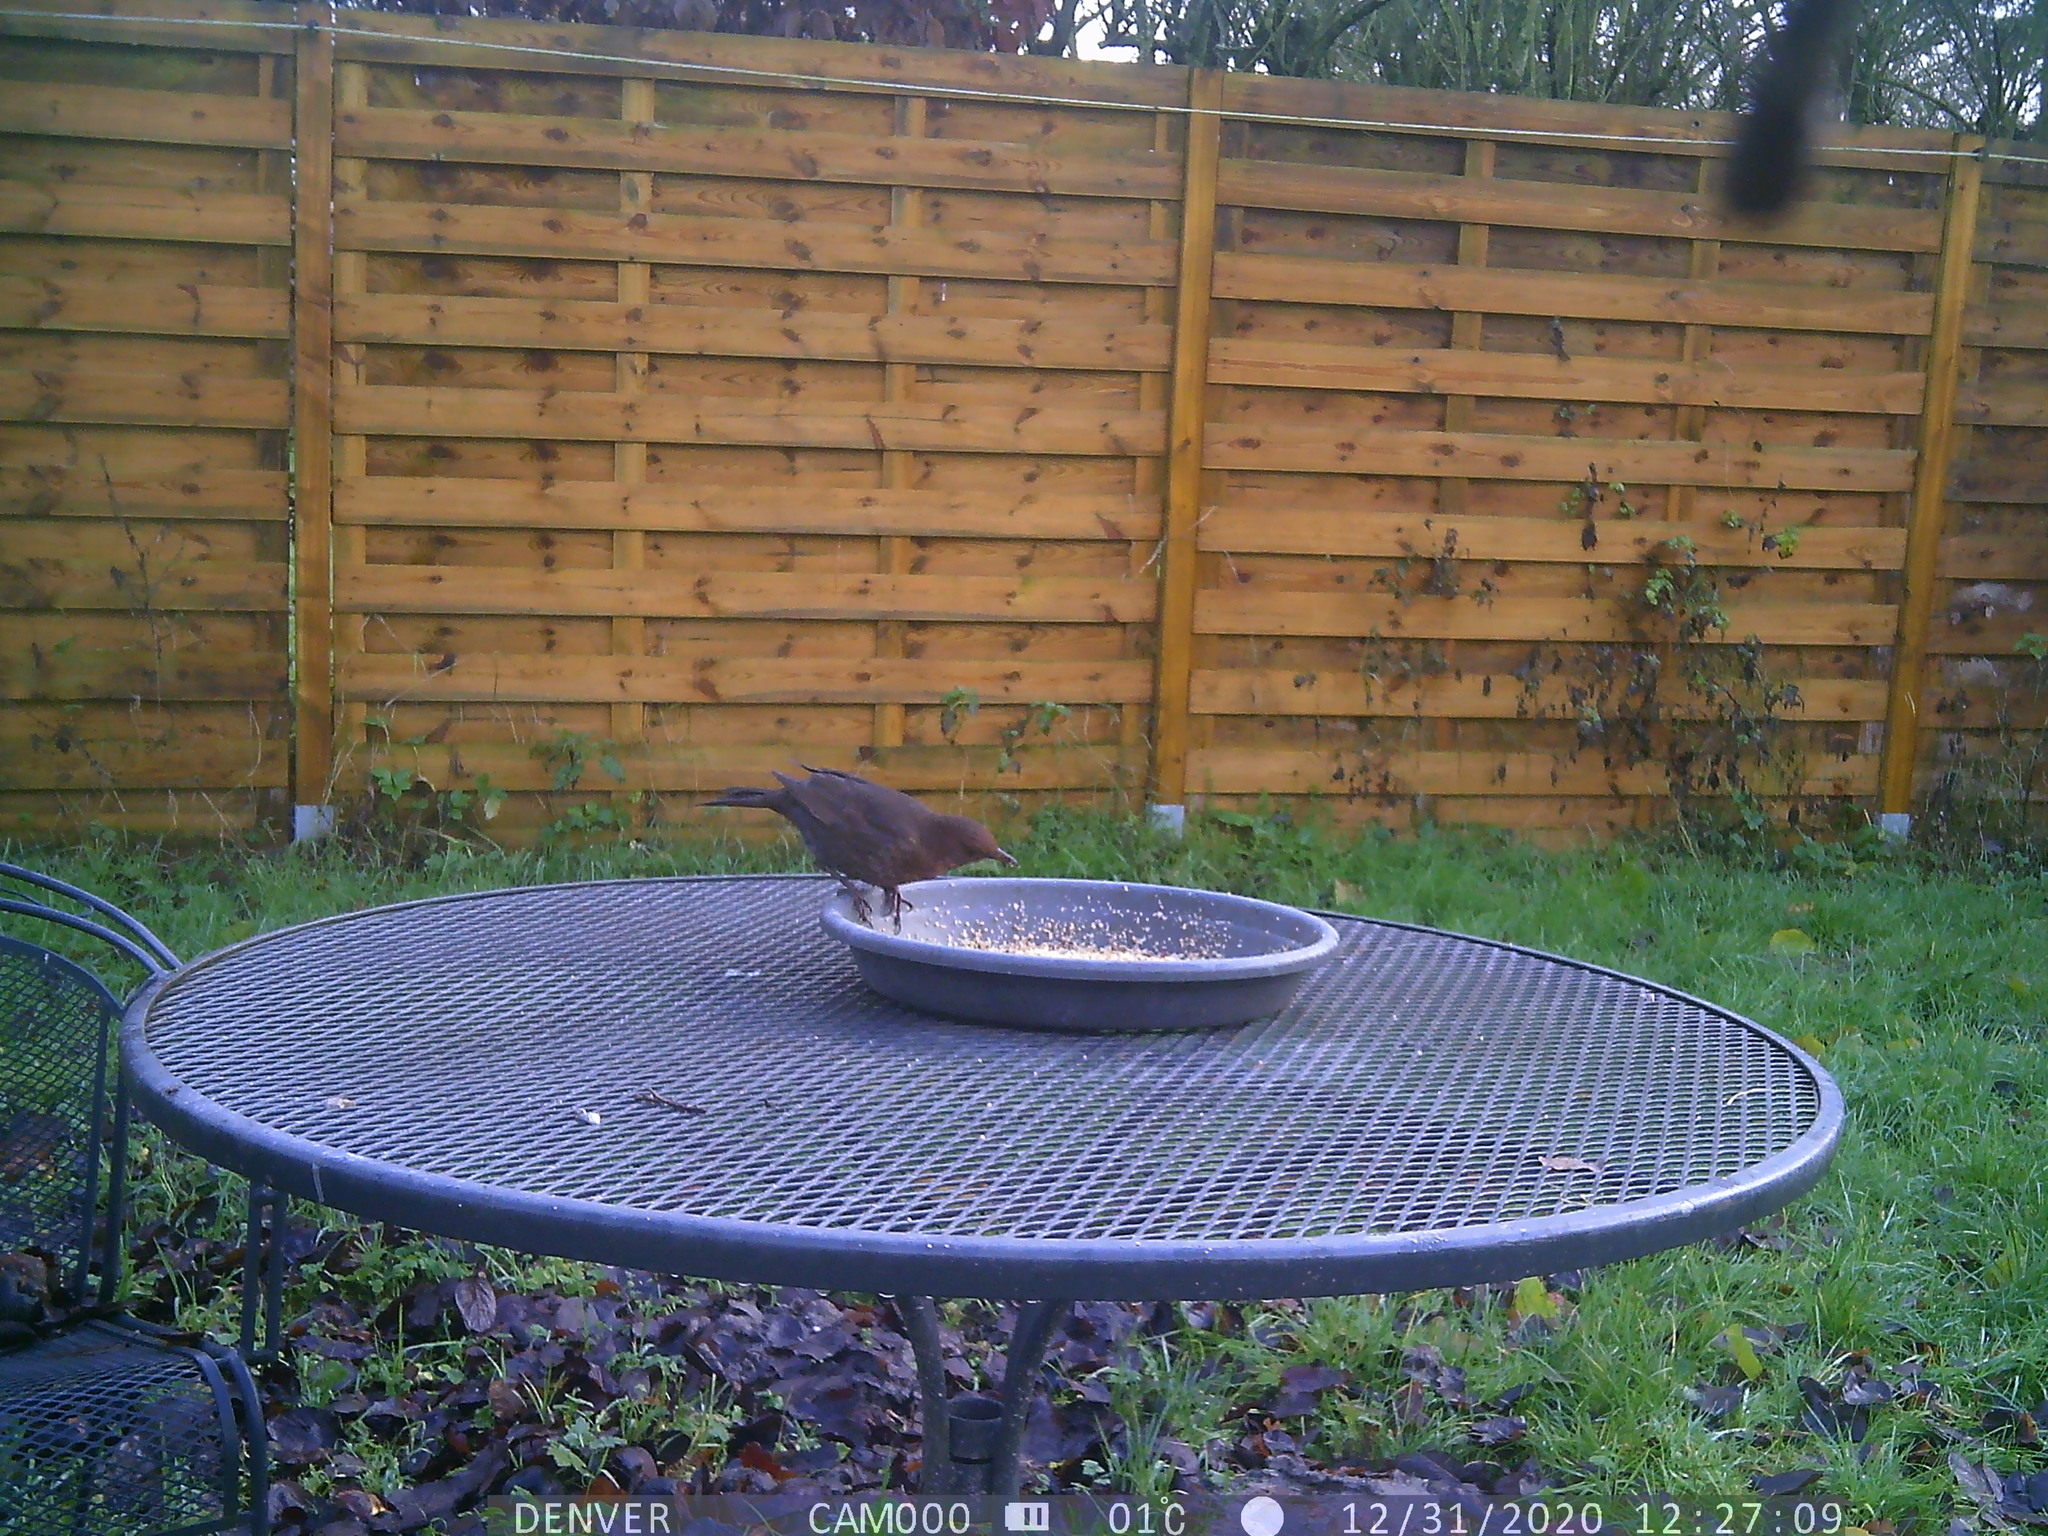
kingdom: Animalia
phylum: Chordata
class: Aves
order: Passeriformes
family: Turdidae
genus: Turdus
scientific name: Turdus merula
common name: Common blackbird
